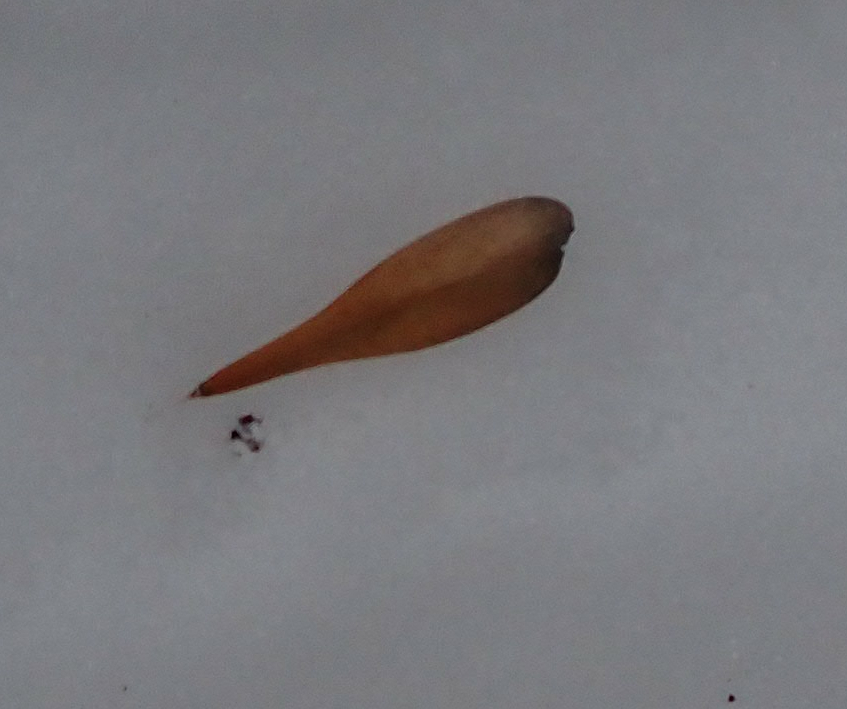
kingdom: Plantae
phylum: Tracheophyta
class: Magnoliopsida
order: Lamiales
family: Oleaceae
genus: Fraxinus
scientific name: Fraxinus pennsylvanica
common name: Green ash
